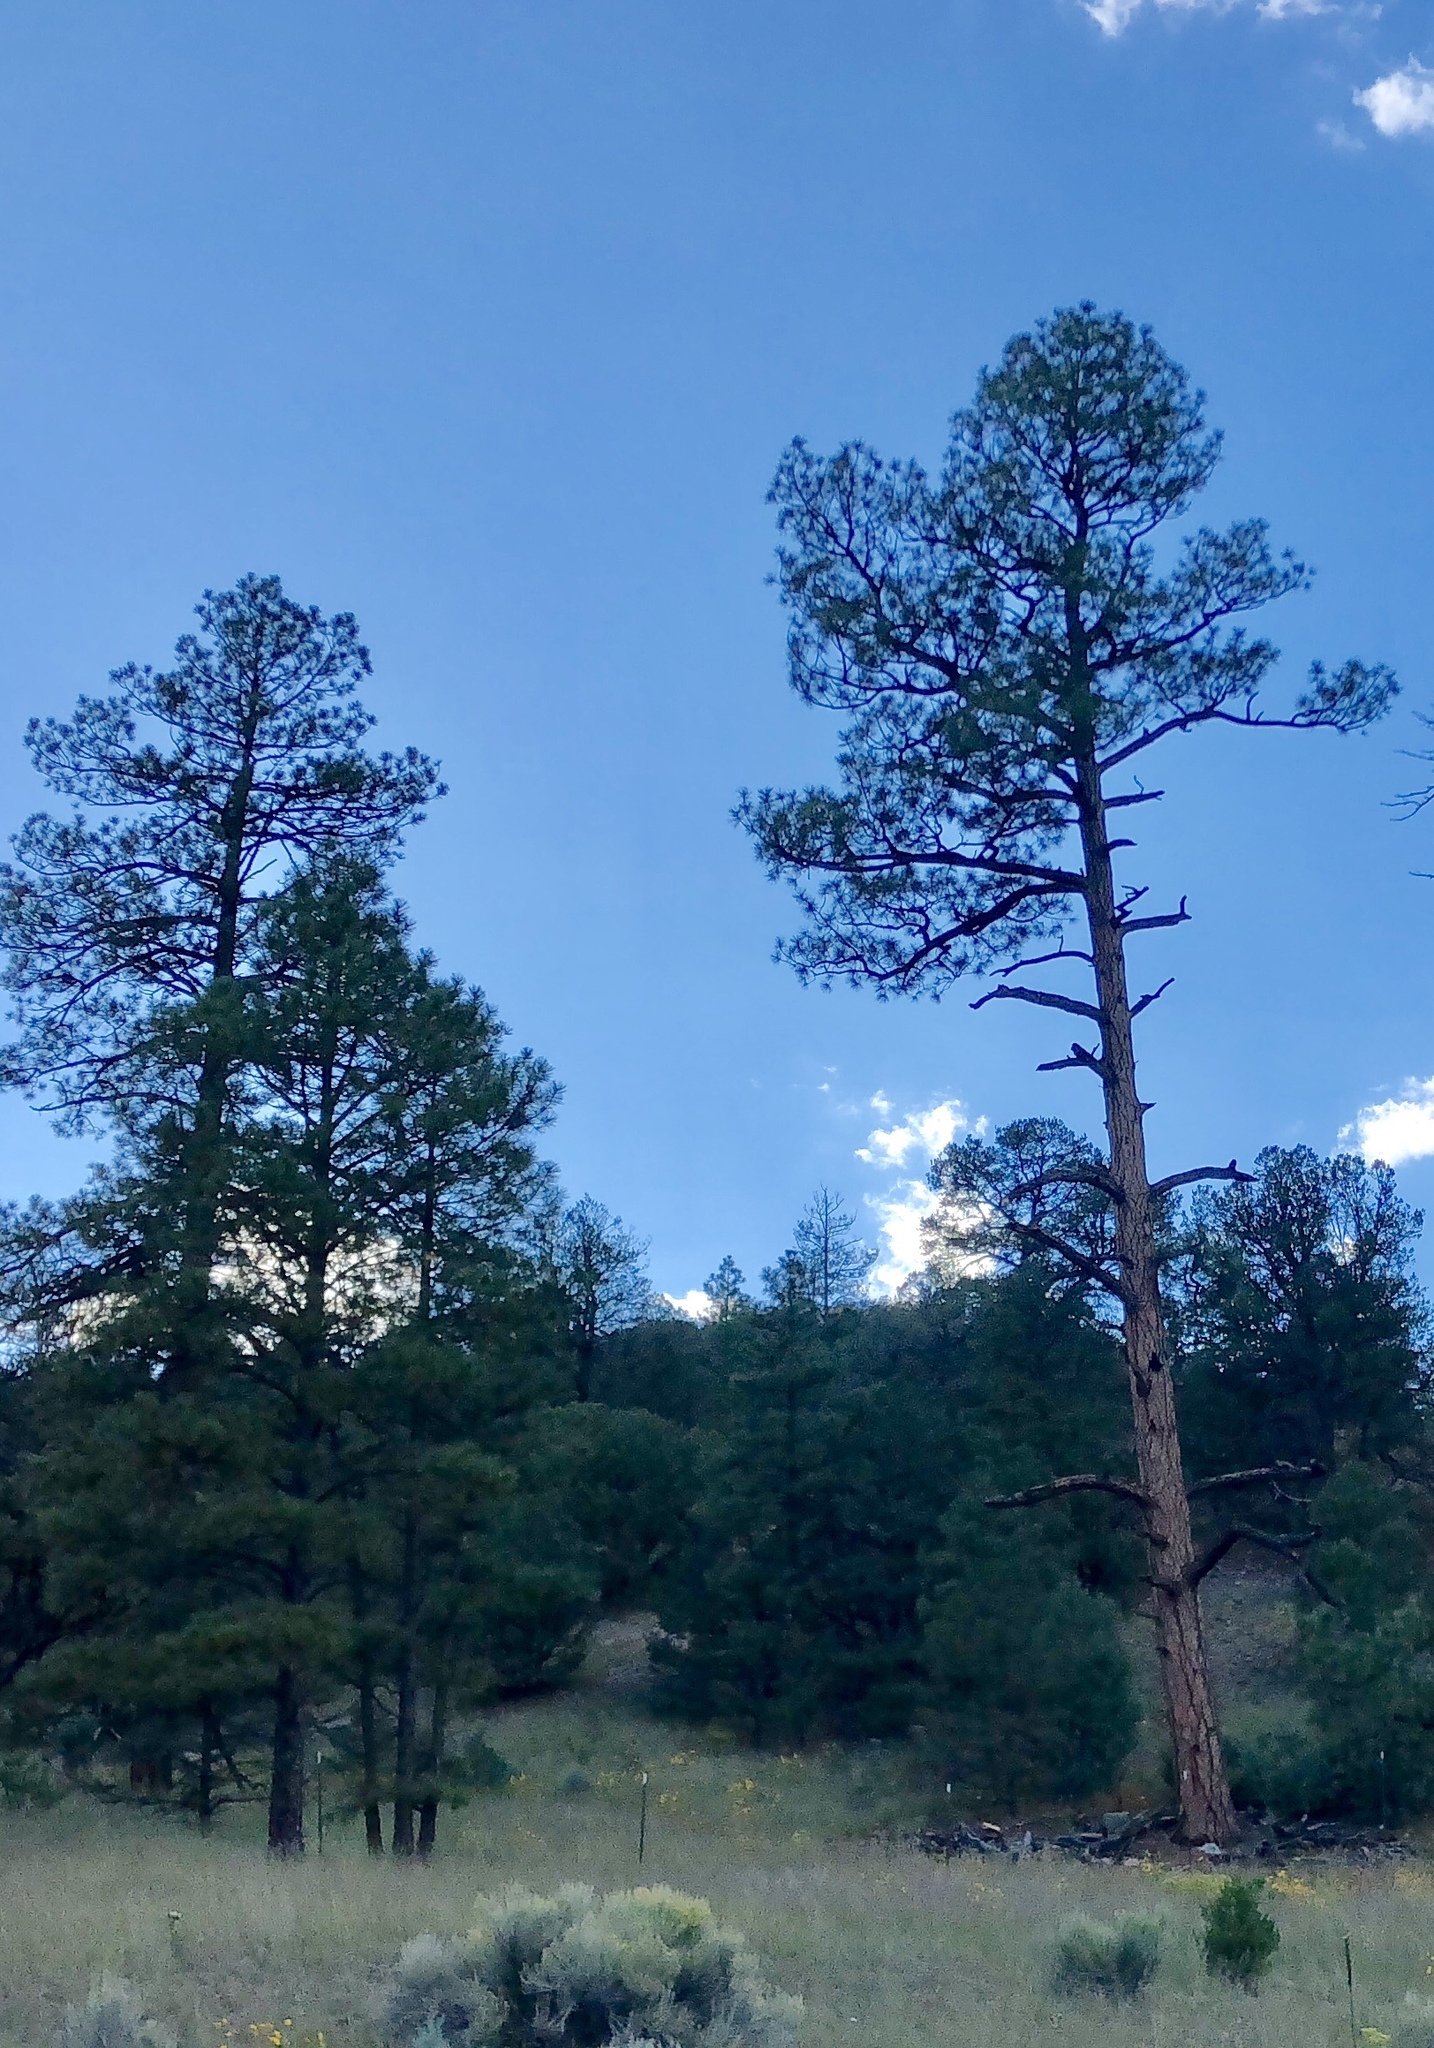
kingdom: Plantae
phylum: Tracheophyta
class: Pinopsida
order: Pinales
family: Pinaceae
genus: Pinus
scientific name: Pinus ponderosa
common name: Western yellow-pine
